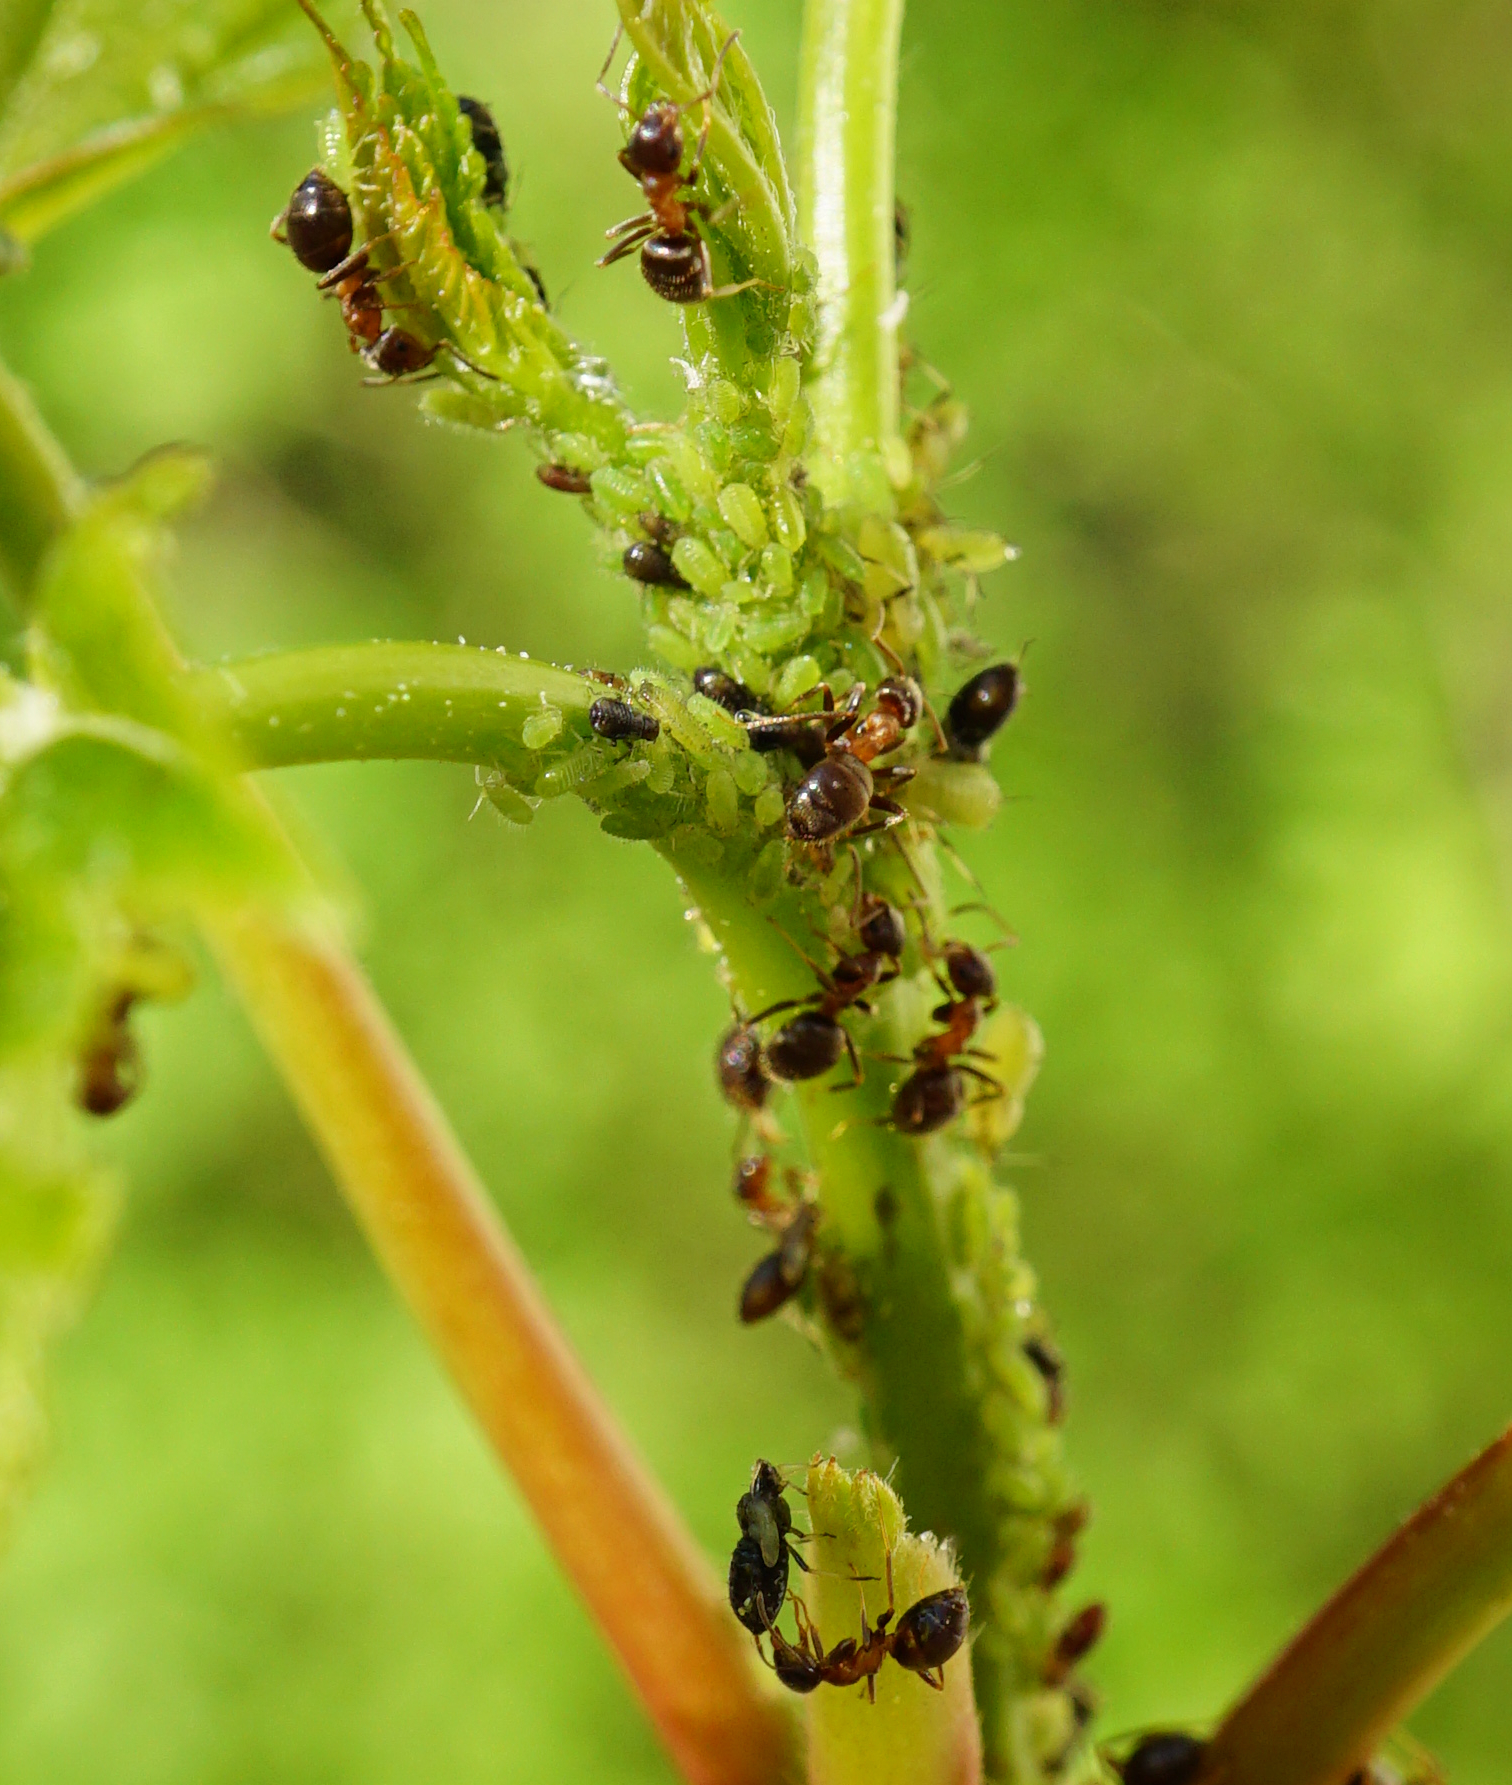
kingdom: Animalia
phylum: Arthropoda
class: Insecta
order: Hymenoptera
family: Formicidae
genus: Lasius
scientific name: Lasius emarginatus
